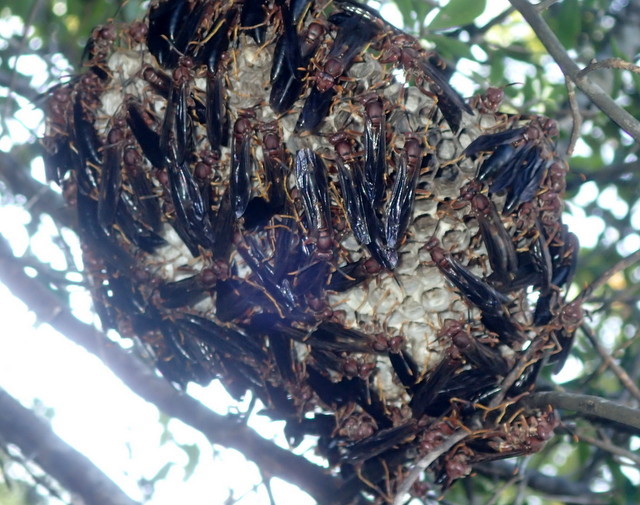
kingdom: Animalia
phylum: Arthropoda
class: Insecta
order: Hymenoptera
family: Eumenidae
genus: Polistes
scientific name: Polistes annularis
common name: Ringed paper wasp
